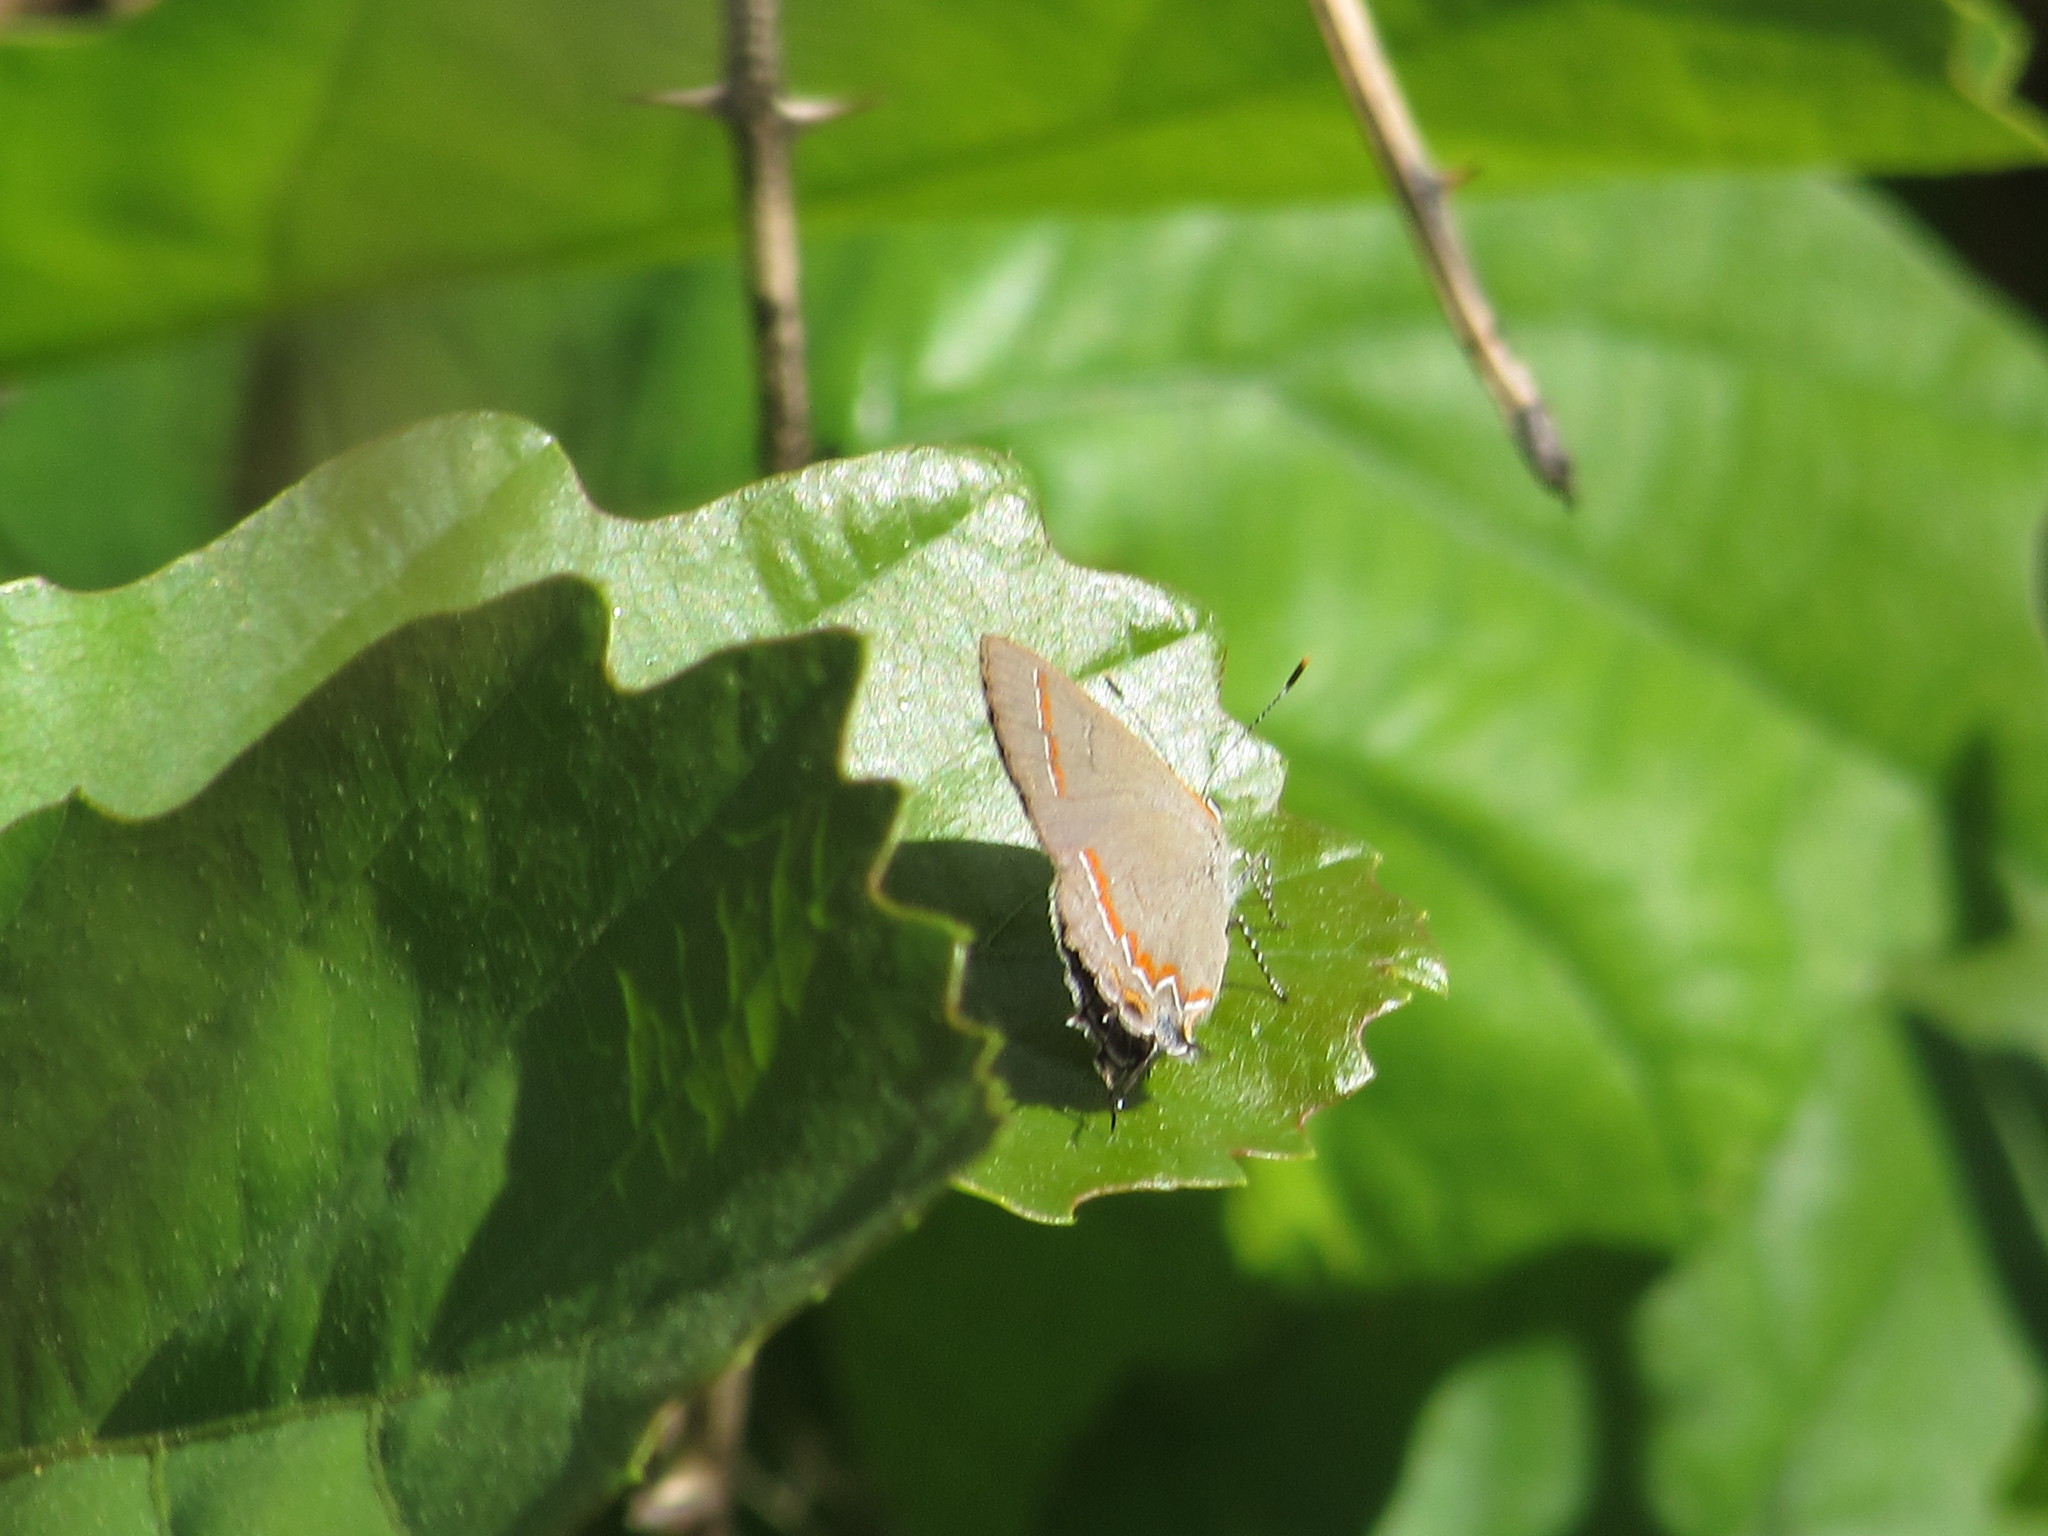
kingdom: Animalia
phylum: Arthropoda
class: Insecta
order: Lepidoptera
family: Lycaenidae
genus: Calycopis
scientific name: Calycopis cecrops
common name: Red-banded hairstreak
